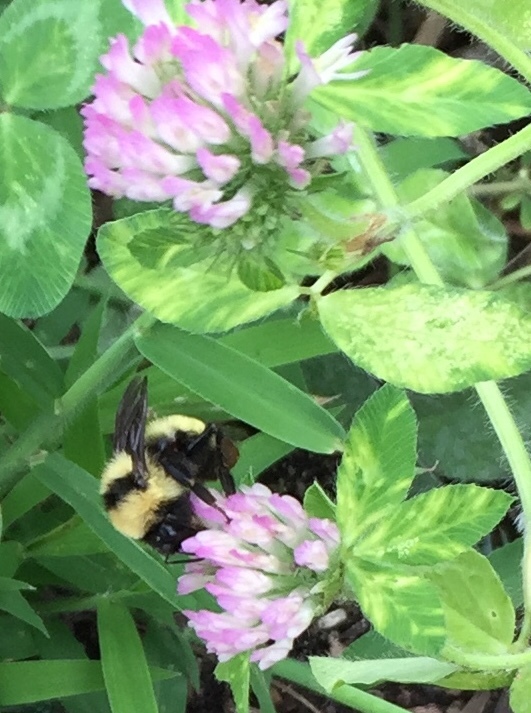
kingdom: Animalia
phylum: Arthropoda
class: Insecta
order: Hymenoptera
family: Apidae
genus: Bombus
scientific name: Bombus fervidus
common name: Yellow bumble bee
